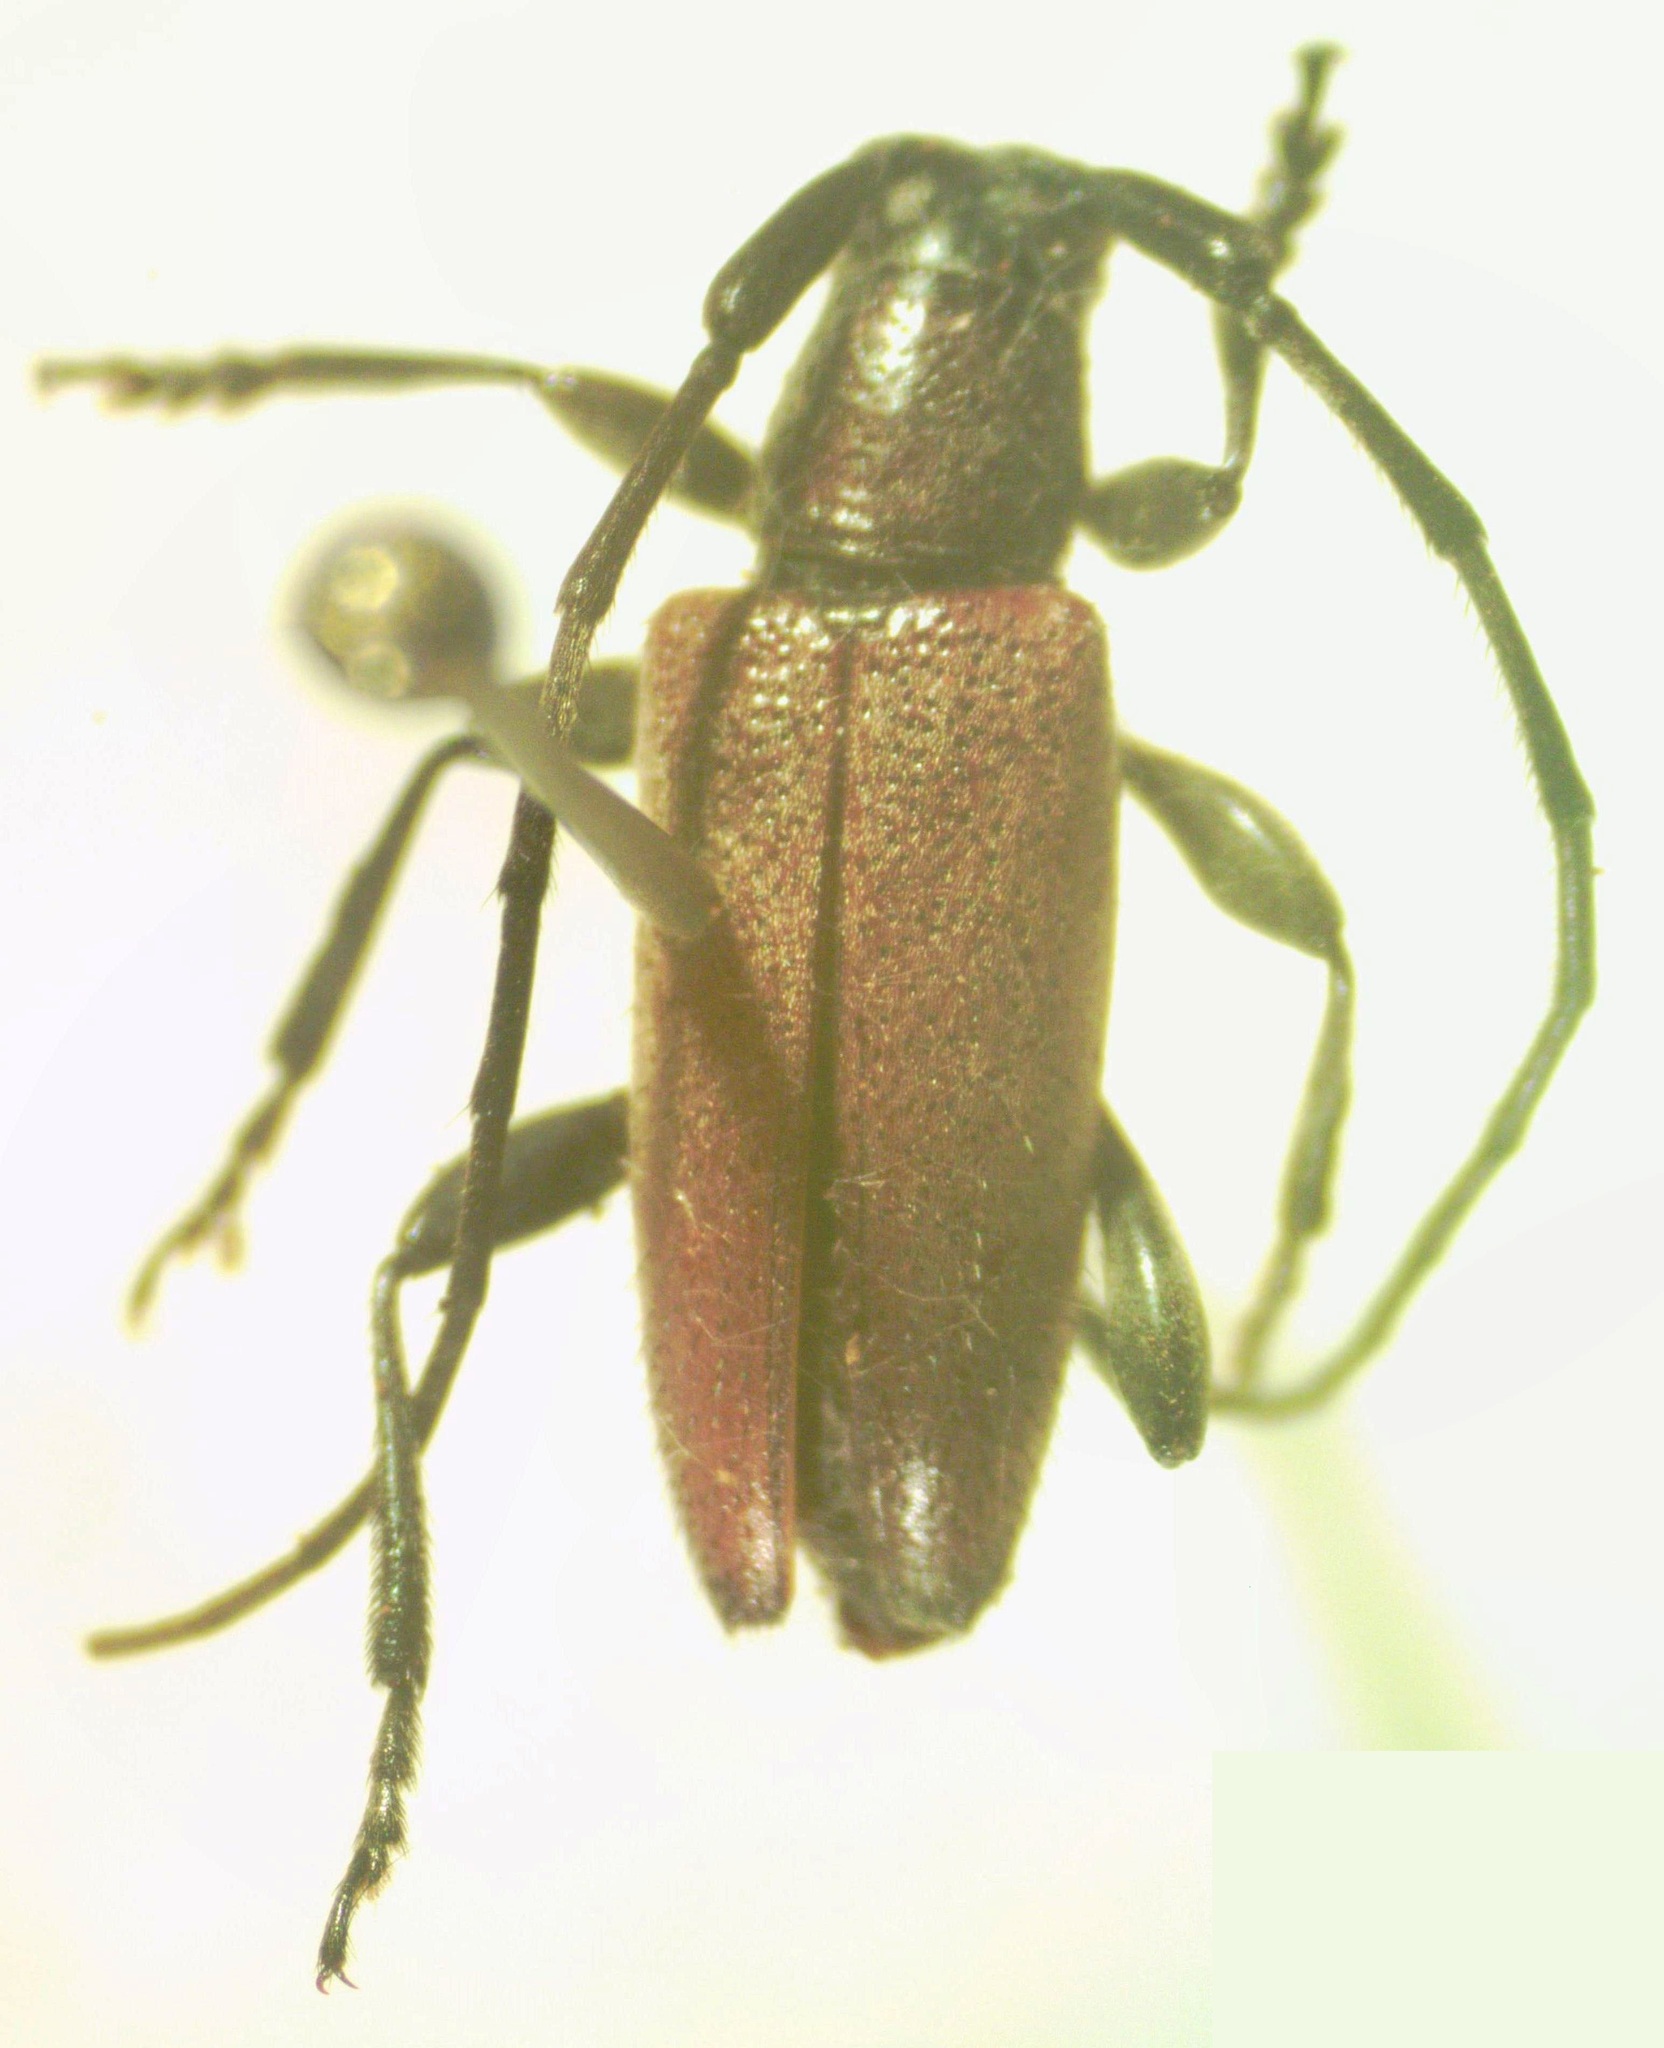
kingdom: Animalia
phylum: Arthropoda
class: Insecta
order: Coleoptera
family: Cerambycidae
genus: Cymatonycha
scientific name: Cymatonycha castanea
